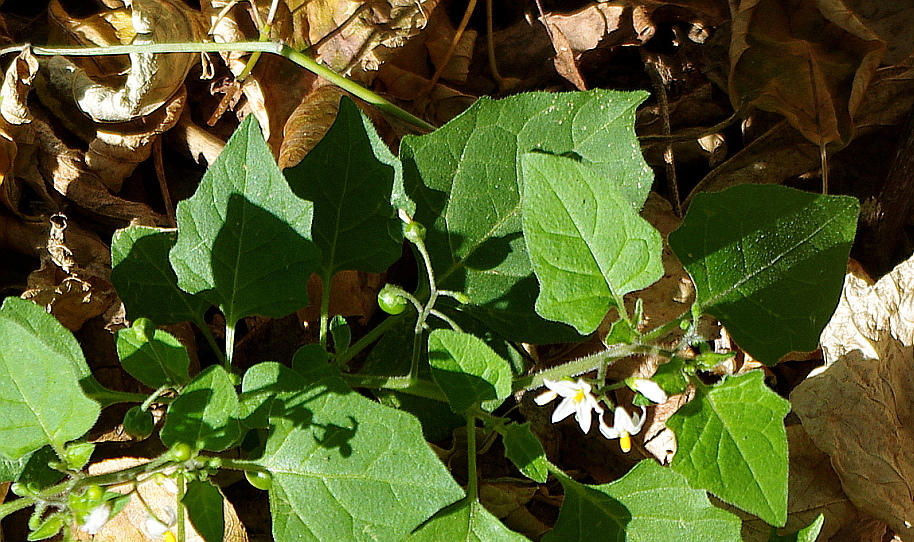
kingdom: Plantae
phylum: Tracheophyta
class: Magnoliopsida
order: Solanales
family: Solanaceae
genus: Solanum
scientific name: Solanum nigrum
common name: Black nightshade
